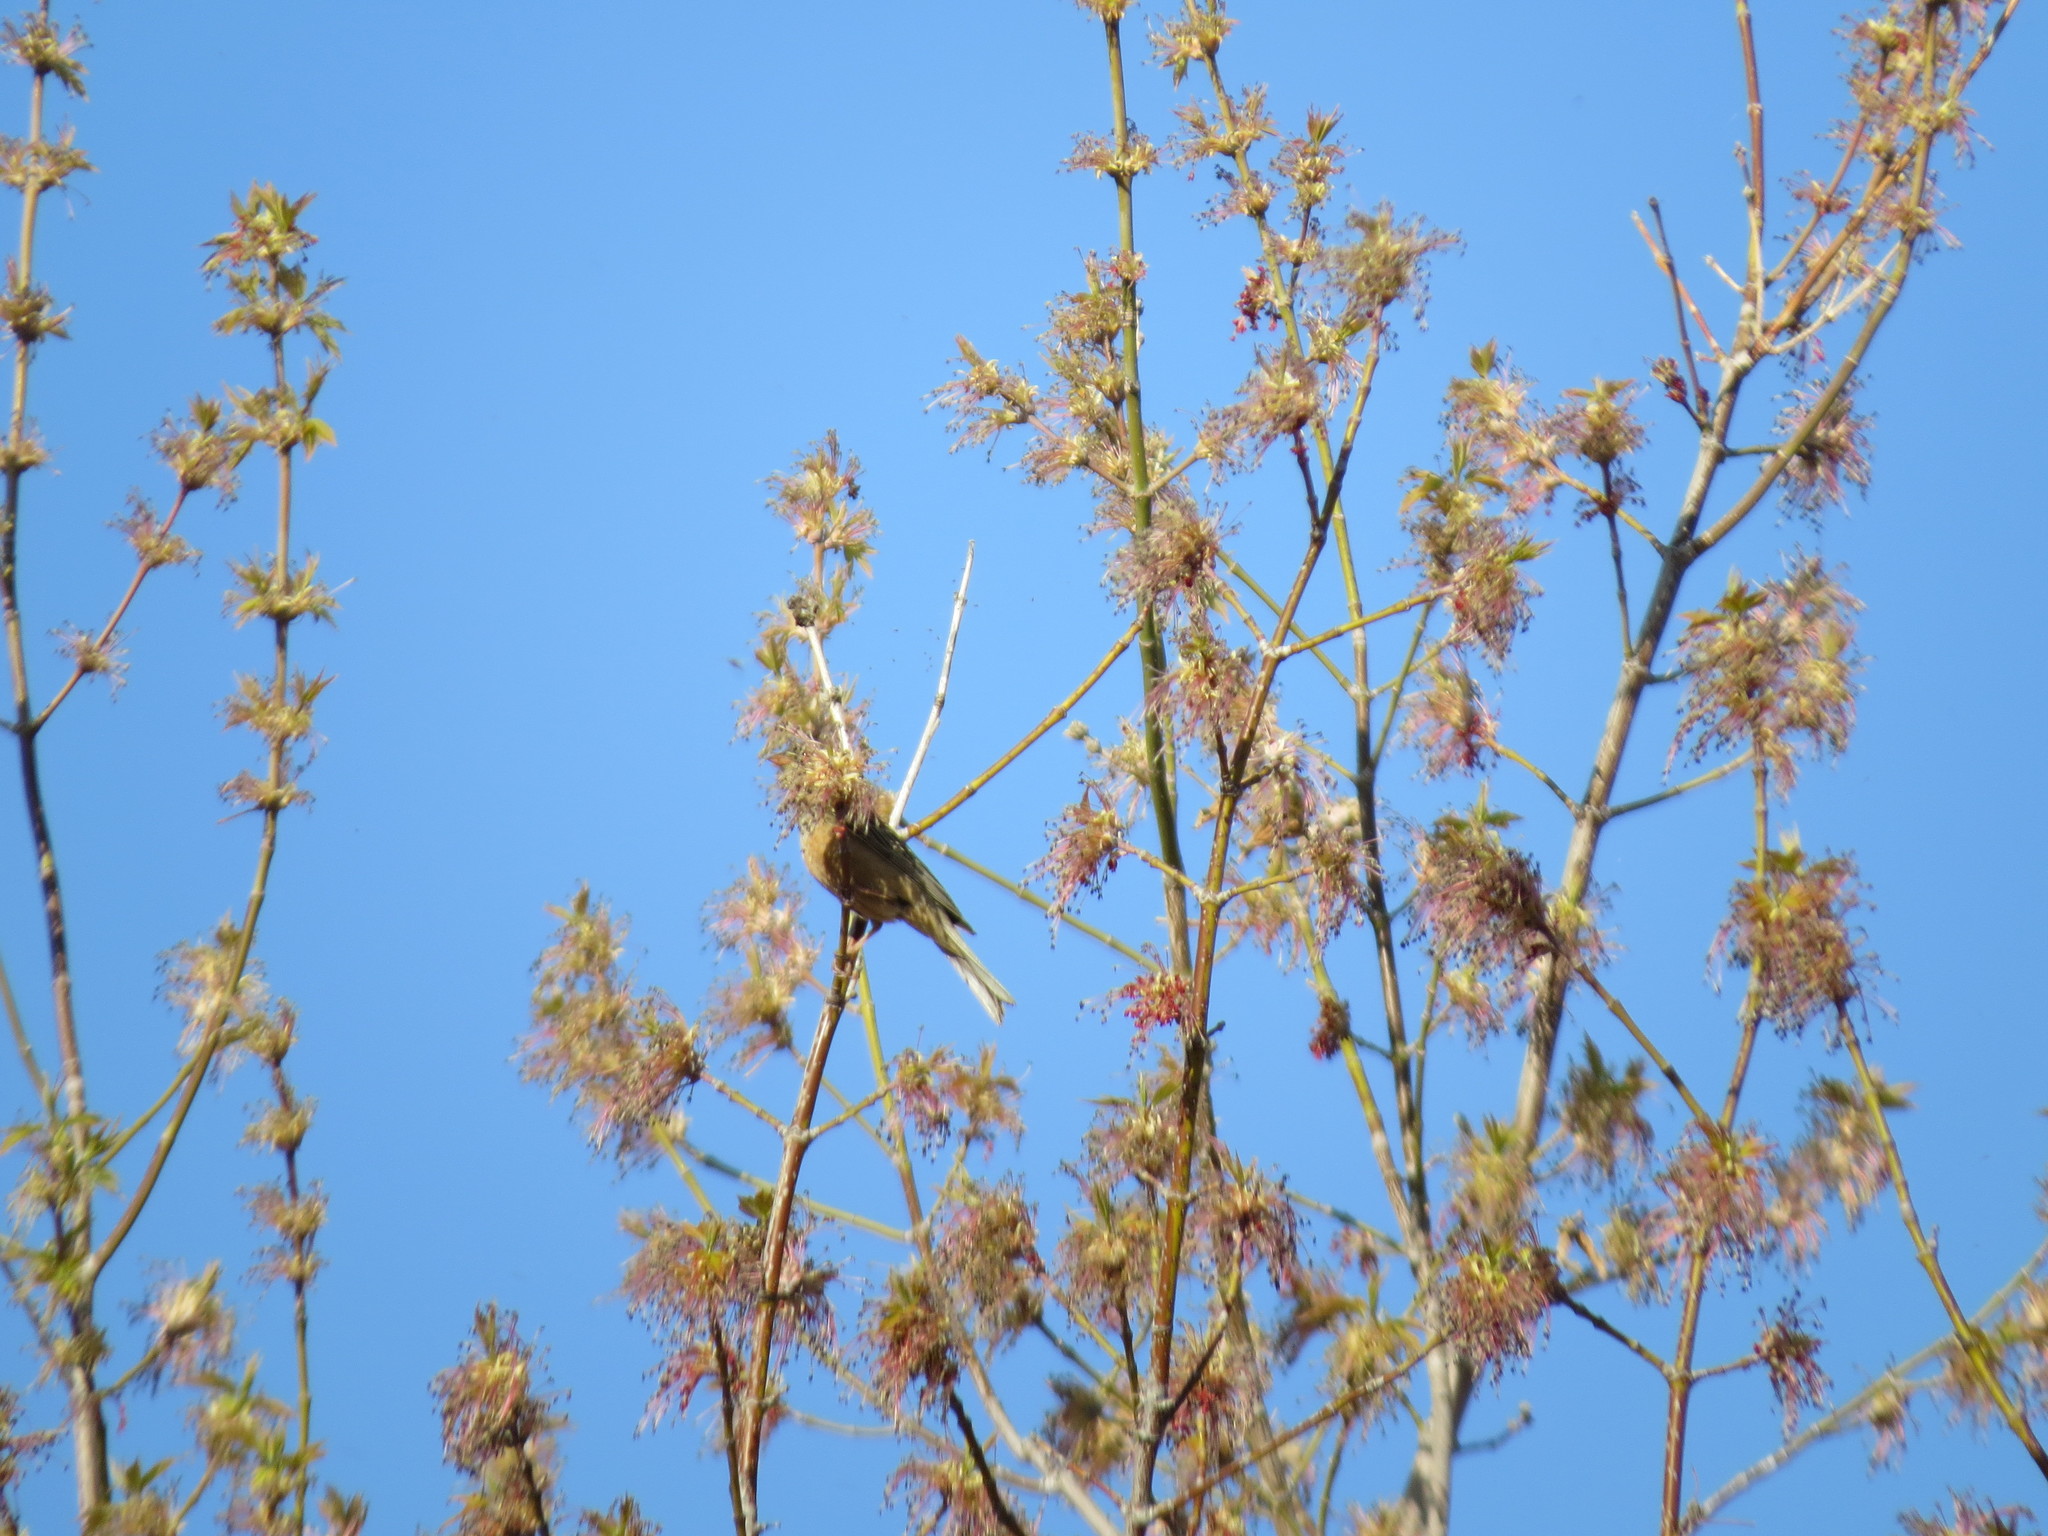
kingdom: Animalia
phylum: Chordata
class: Aves
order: Passeriformes
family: Emberizidae
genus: Emberiza
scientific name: Emberiza hortulana
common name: Ortolan bunting
